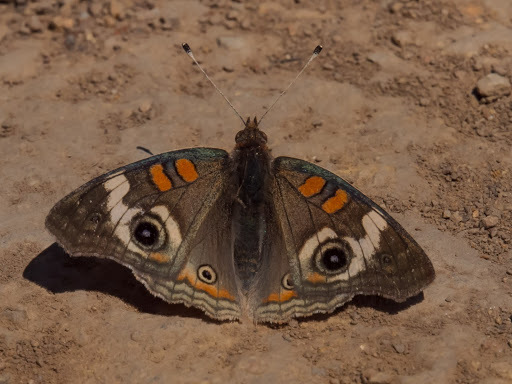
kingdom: Animalia
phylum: Arthropoda
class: Insecta
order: Lepidoptera
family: Nymphalidae
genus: Junonia
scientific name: Junonia grisea
